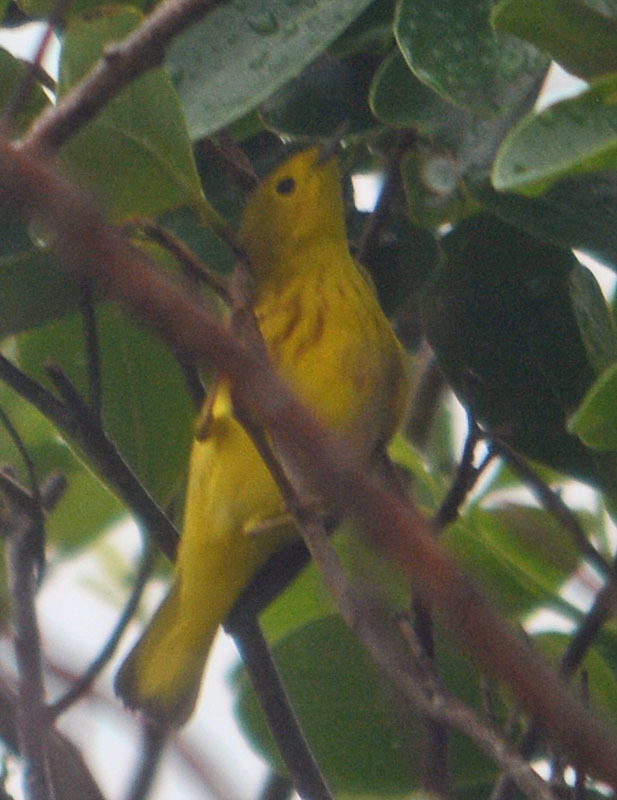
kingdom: Animalia
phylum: Chordata
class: Aves
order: Passeriformes
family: Parulidae
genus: Setophaga
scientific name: Setophaga petechia
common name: Yellow warbler
